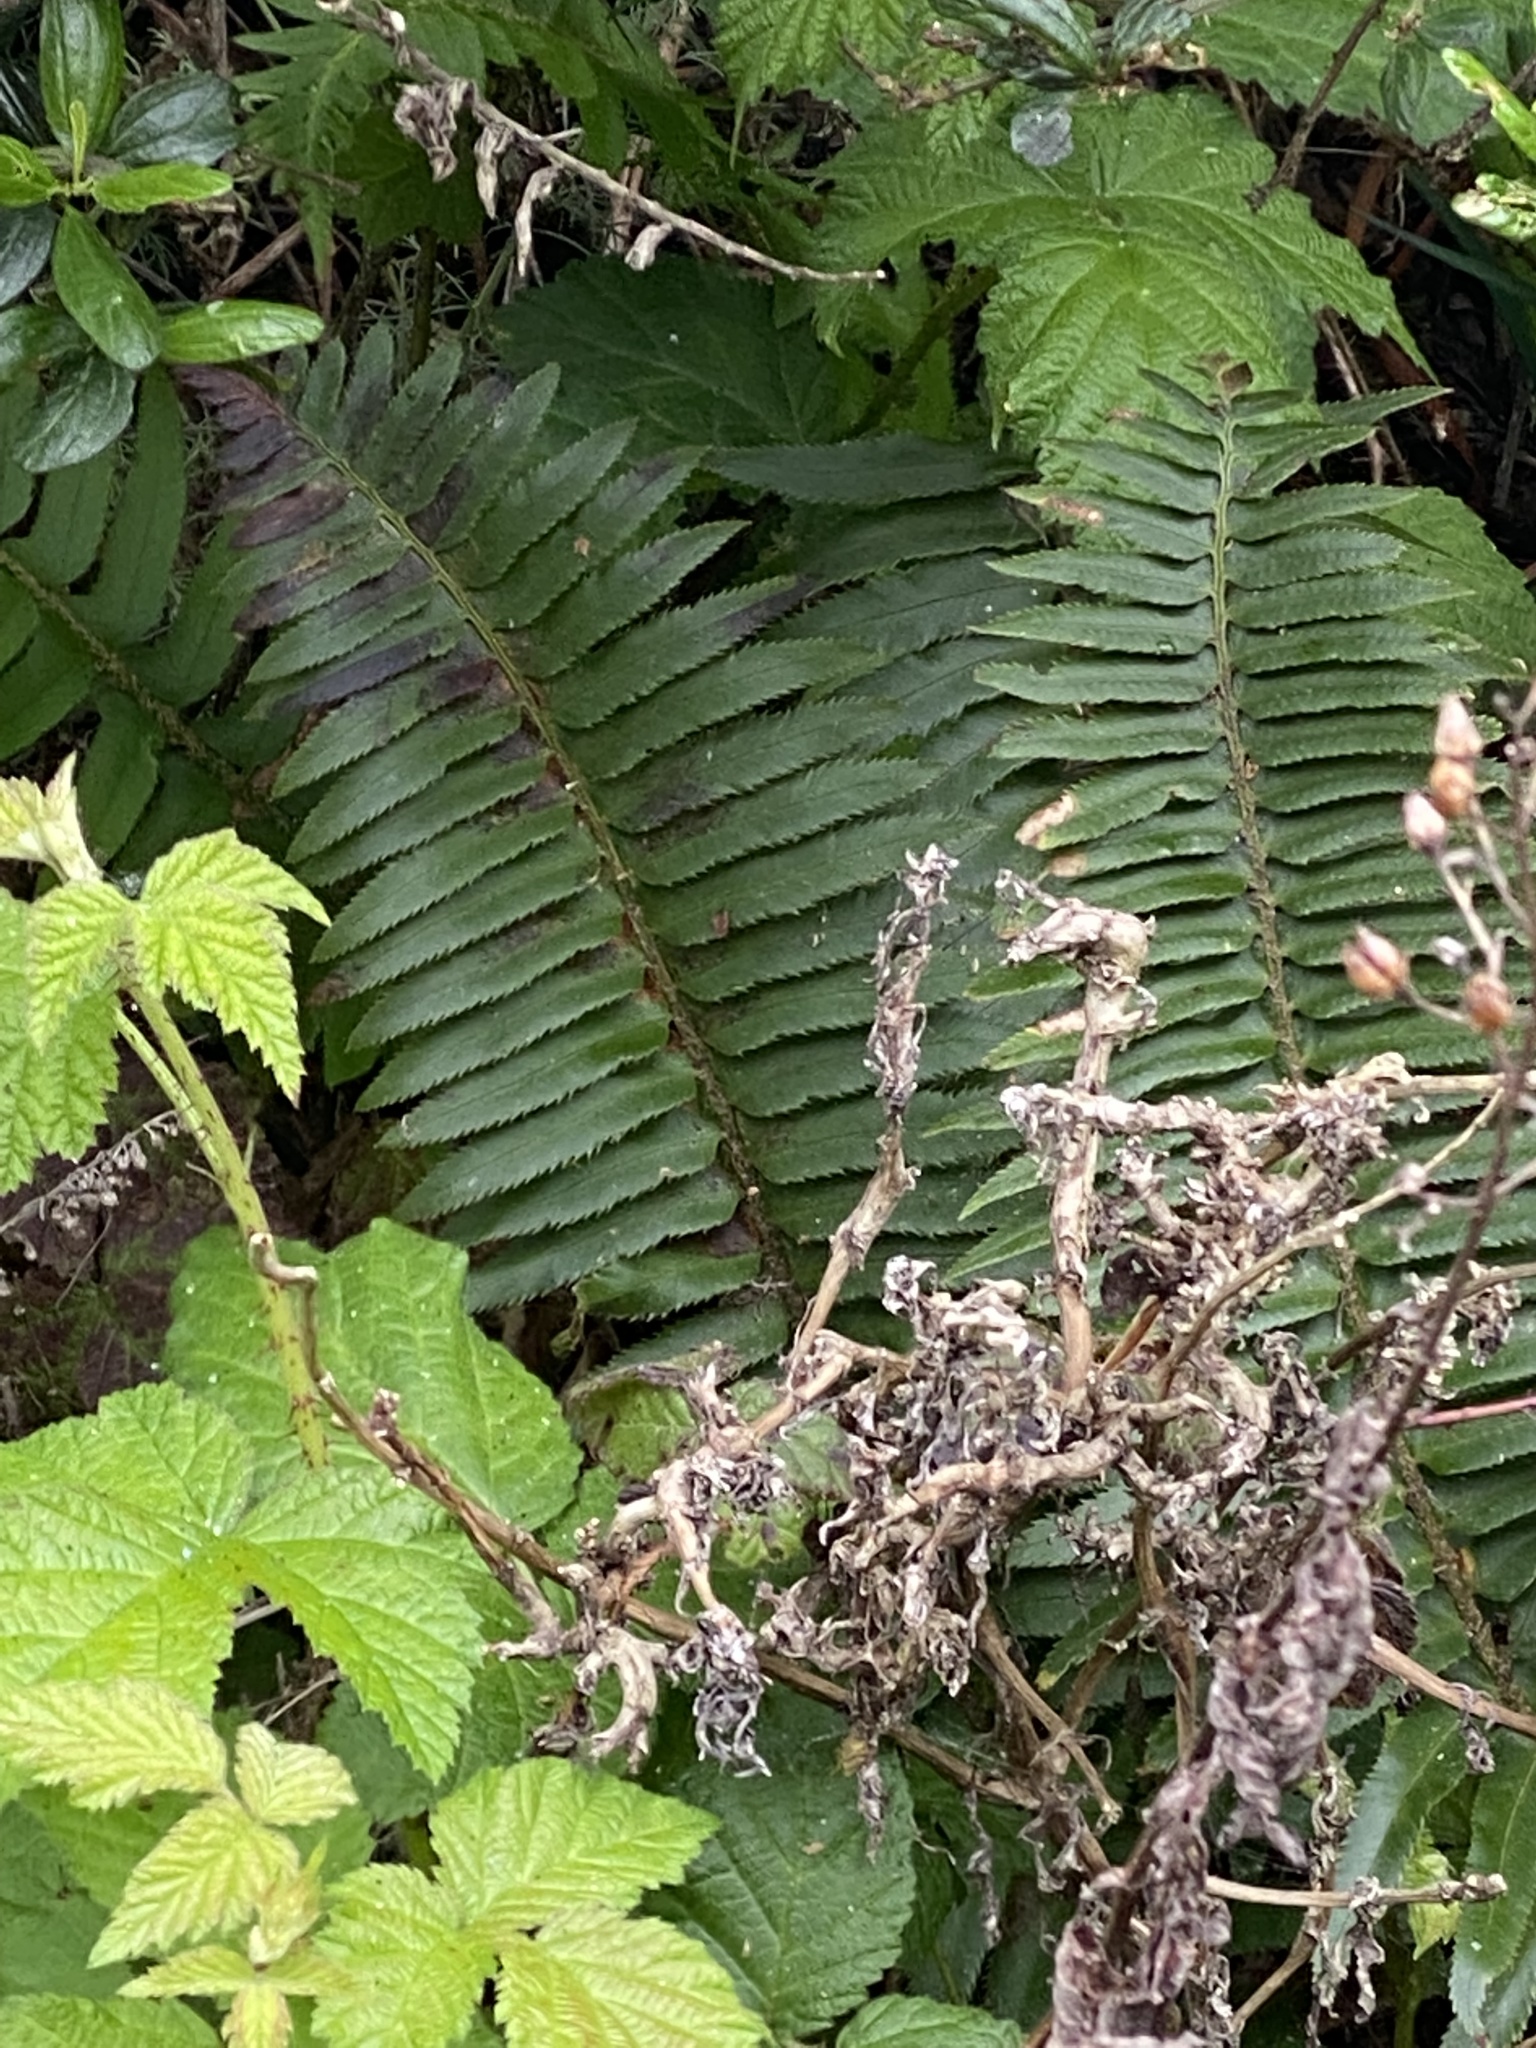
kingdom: Plantae
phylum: Tracheophyta
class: Polypodiopsida
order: Polypodiales
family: Dryopteridaceae
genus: Polystichum
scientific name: Polystichum munitum
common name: Western sword-fern
